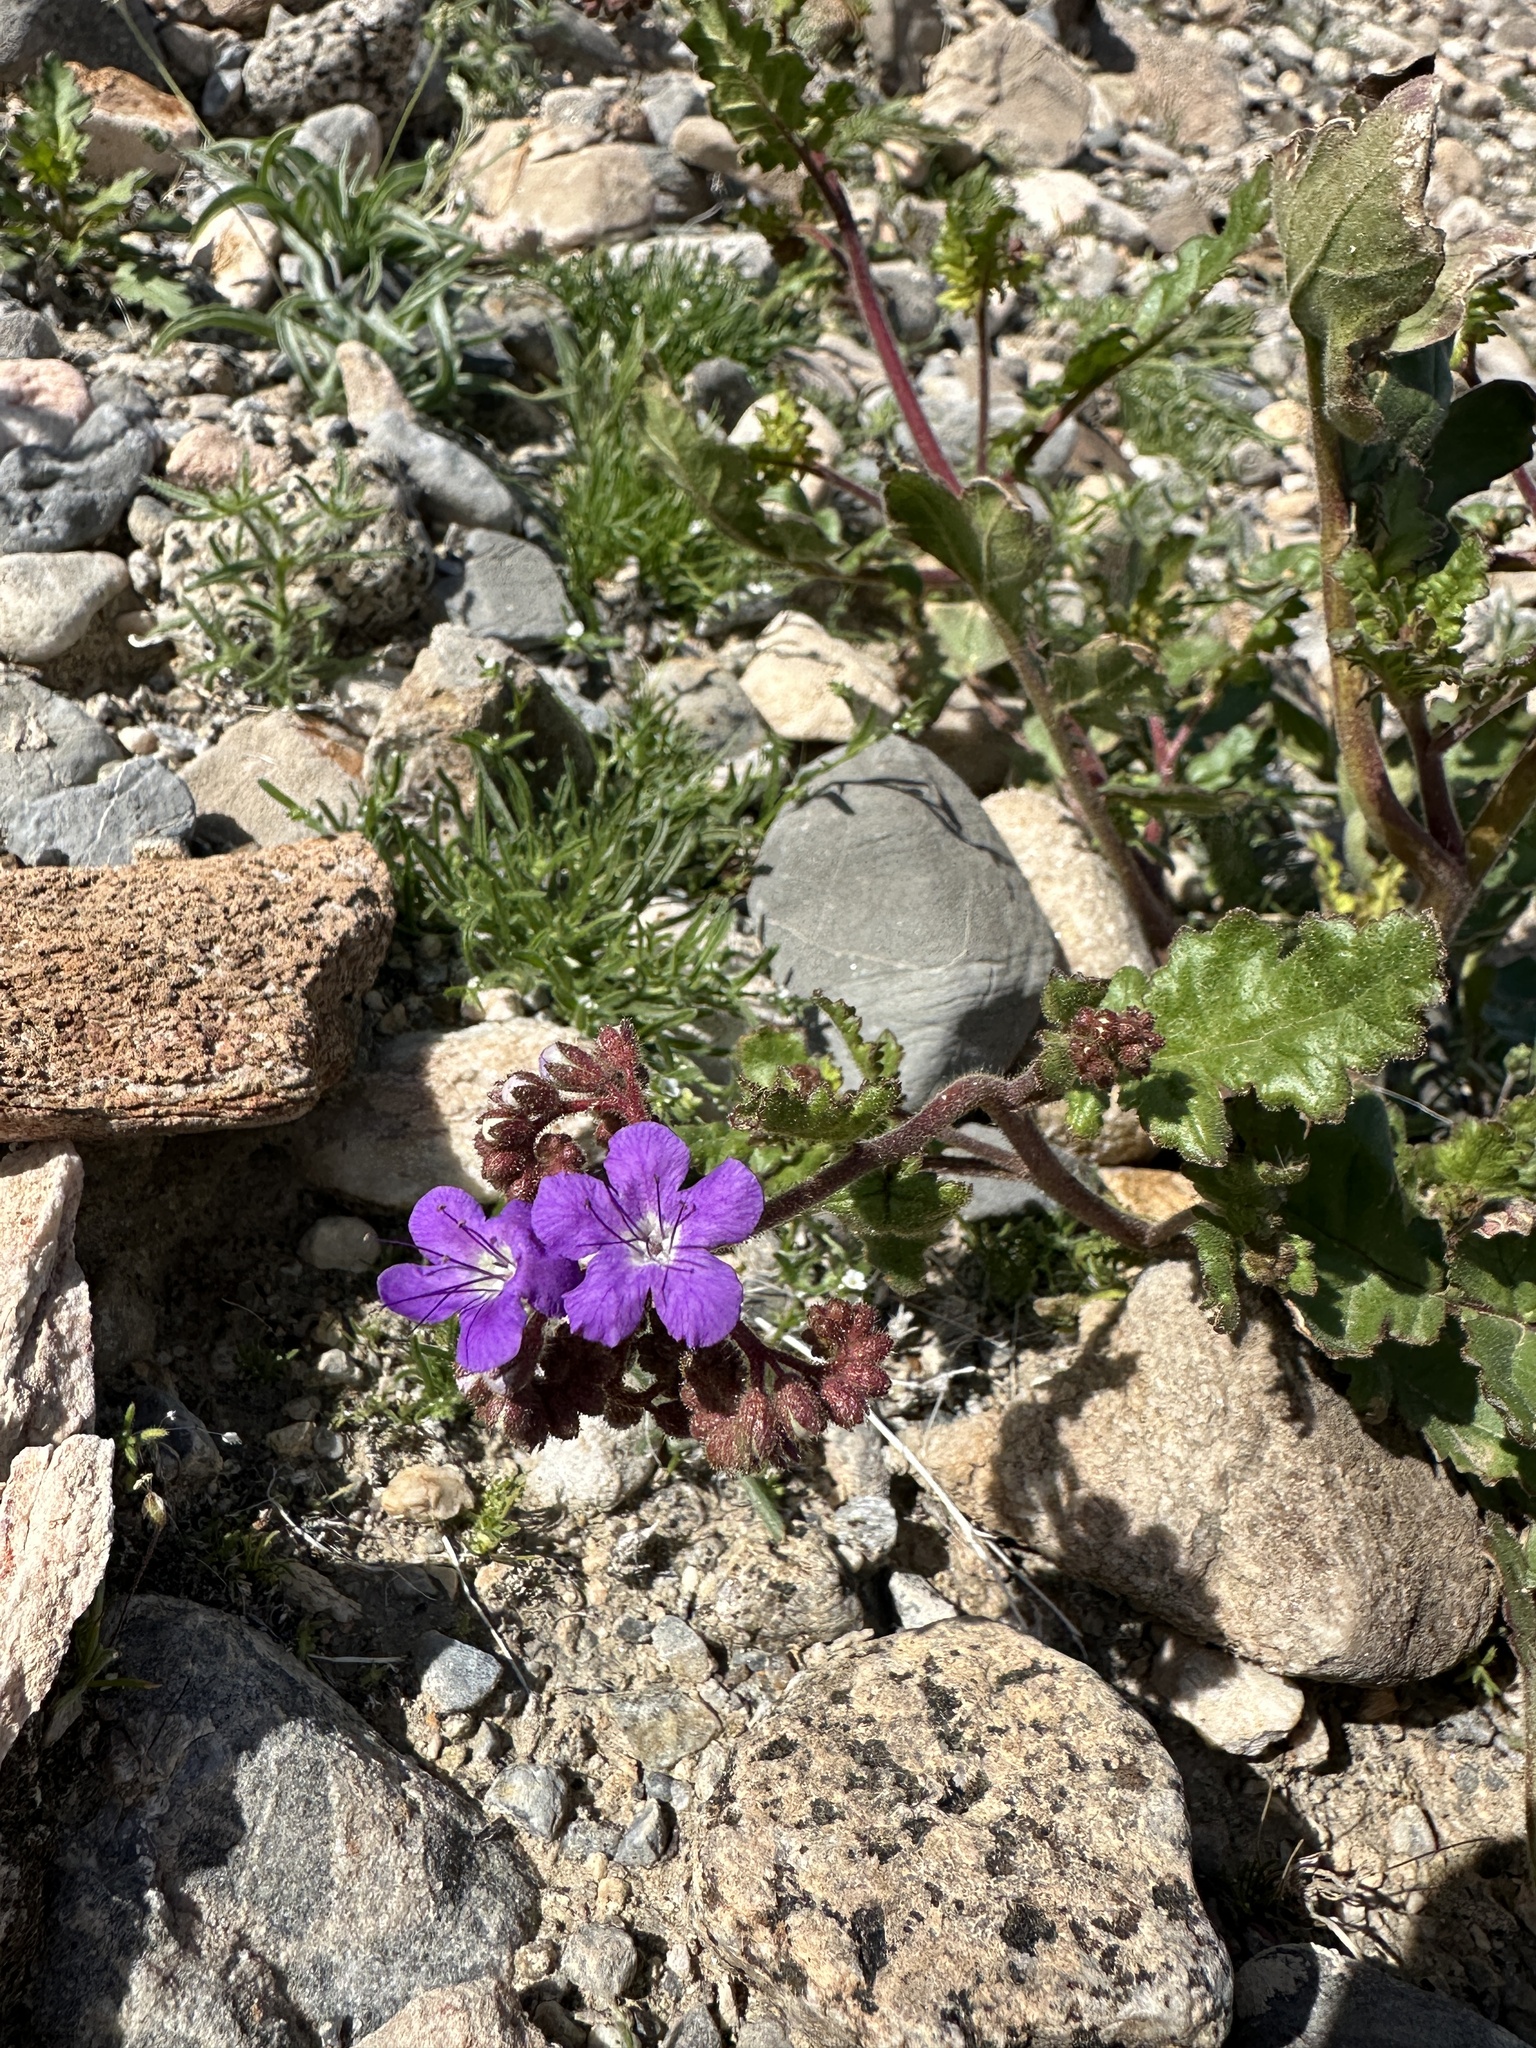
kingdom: Plantae
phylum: Tracheophyta
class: Magnoliopsida
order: Boraginales
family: Hydrophyllaceae
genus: Phacelia
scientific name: Phacelia crenulata
